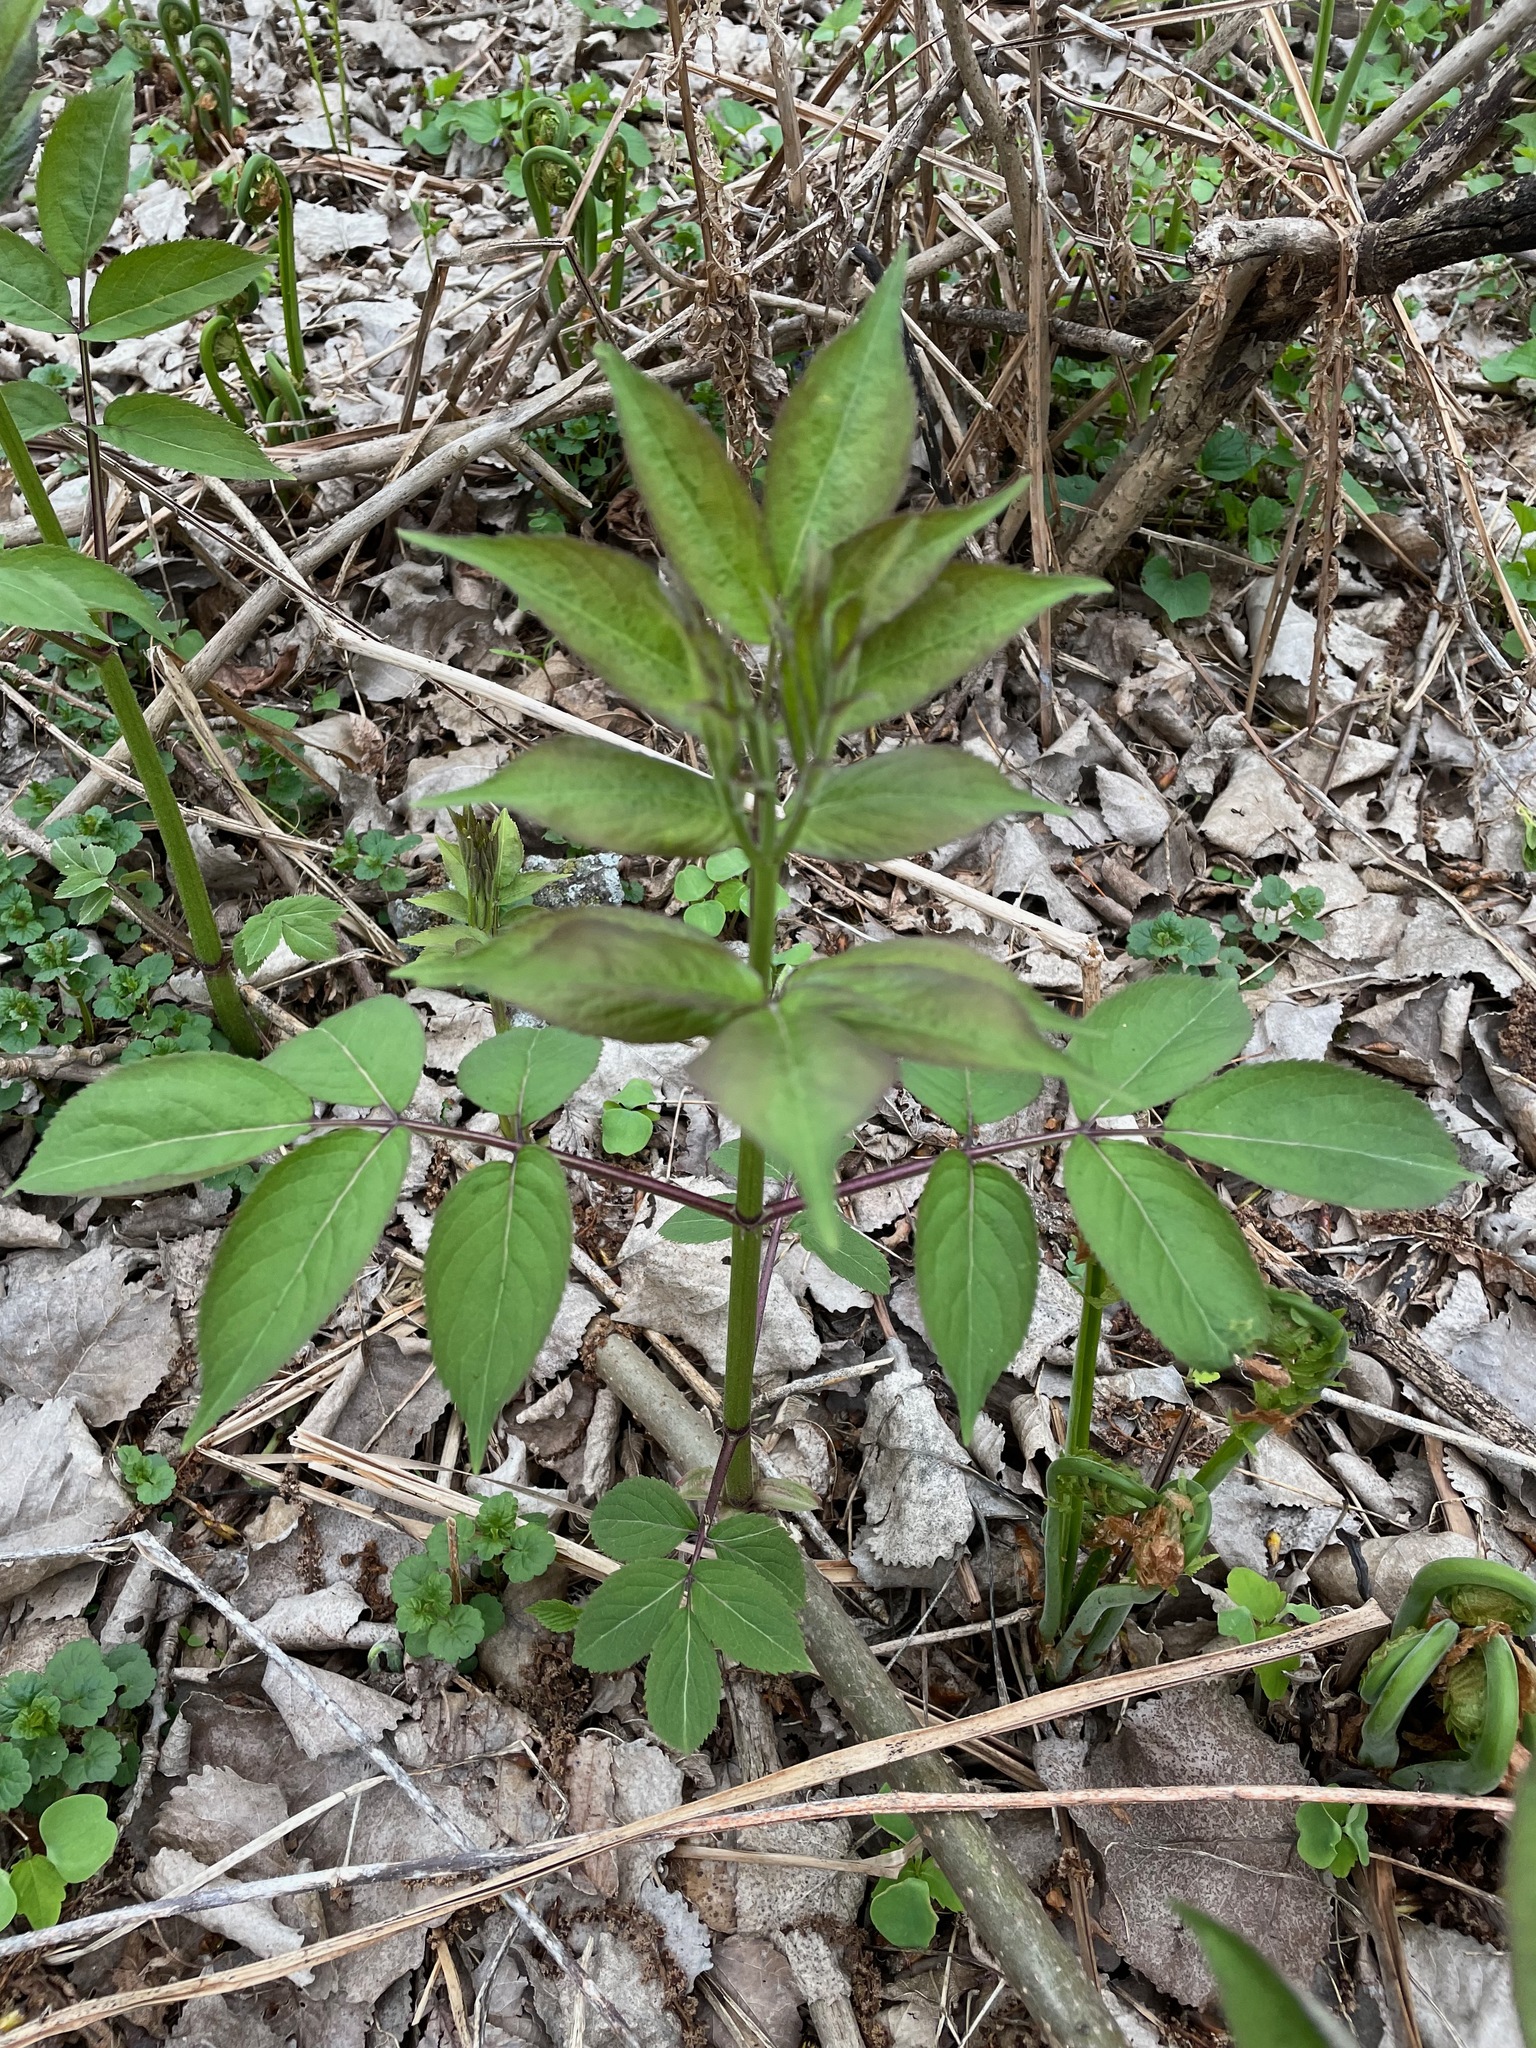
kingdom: Plantae
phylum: Tracheophyta
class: Magnoliopsida
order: Dipsacales
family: Viburnaceae
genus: Sambucus
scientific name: Sambucus racemosa
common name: Red-berried elder
